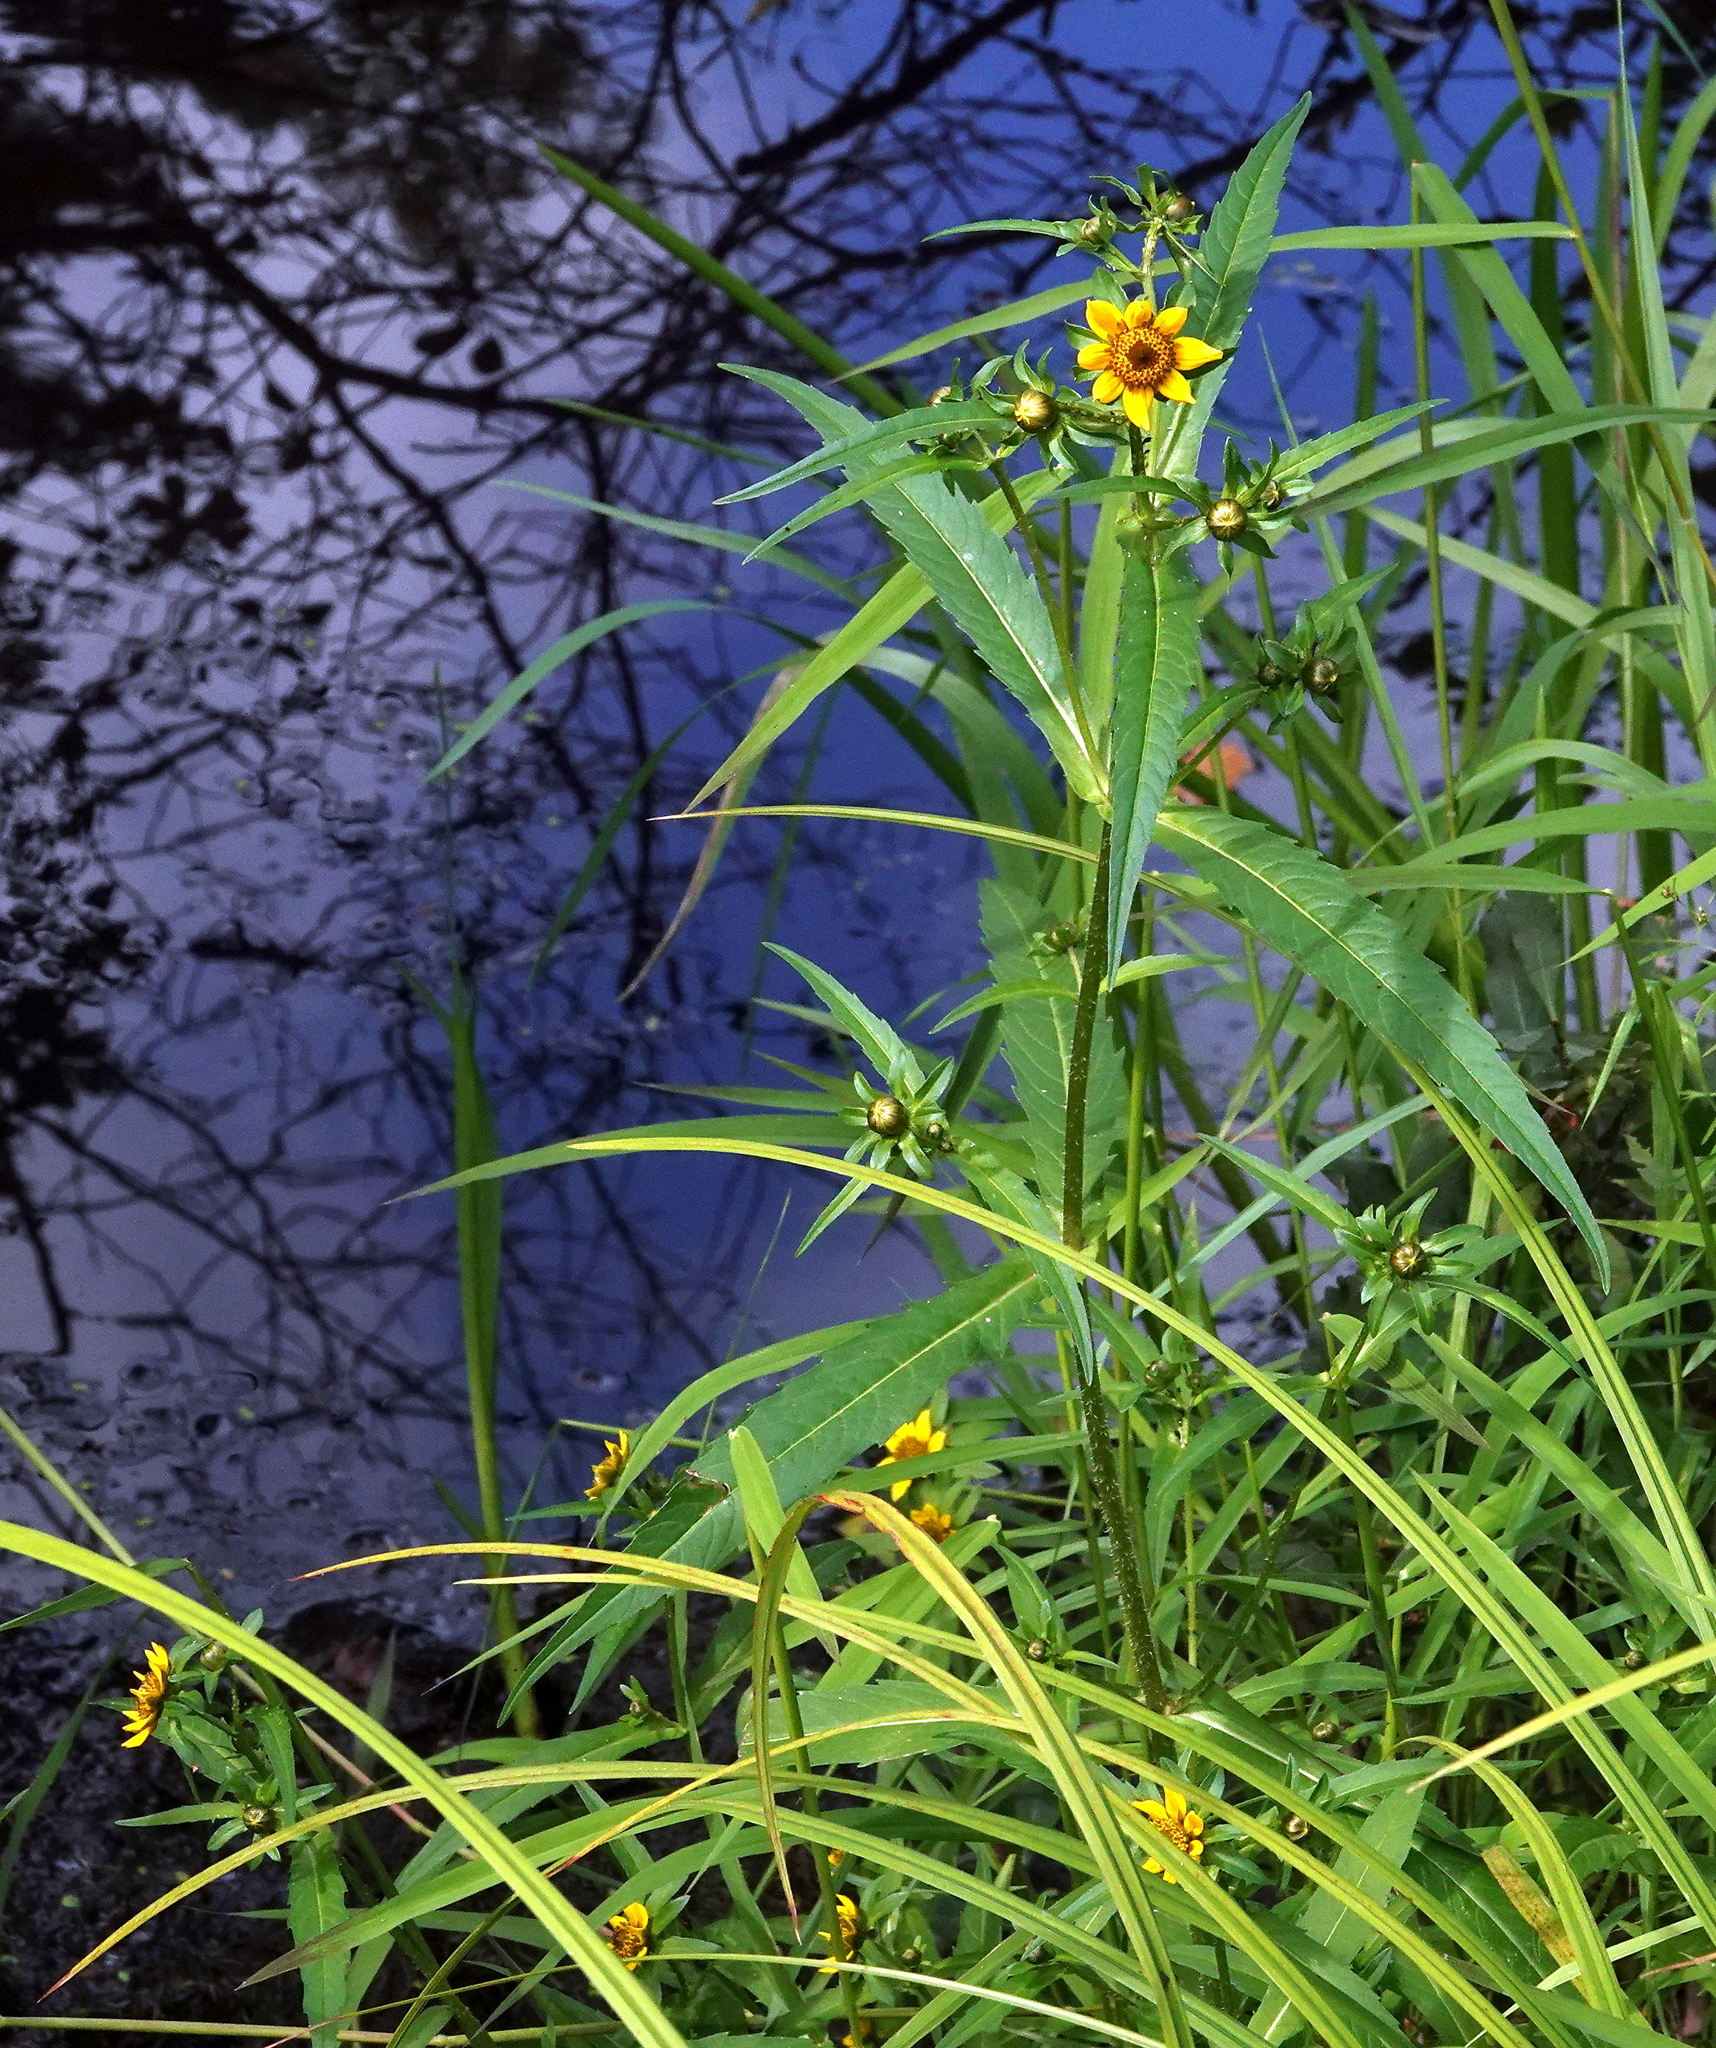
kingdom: Plantae
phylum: Tracheophyta
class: Magnoliopsida
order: Asterales
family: Asteraceae
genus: Bidens
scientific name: Bidens cernua
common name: Nodding bur-marigold
